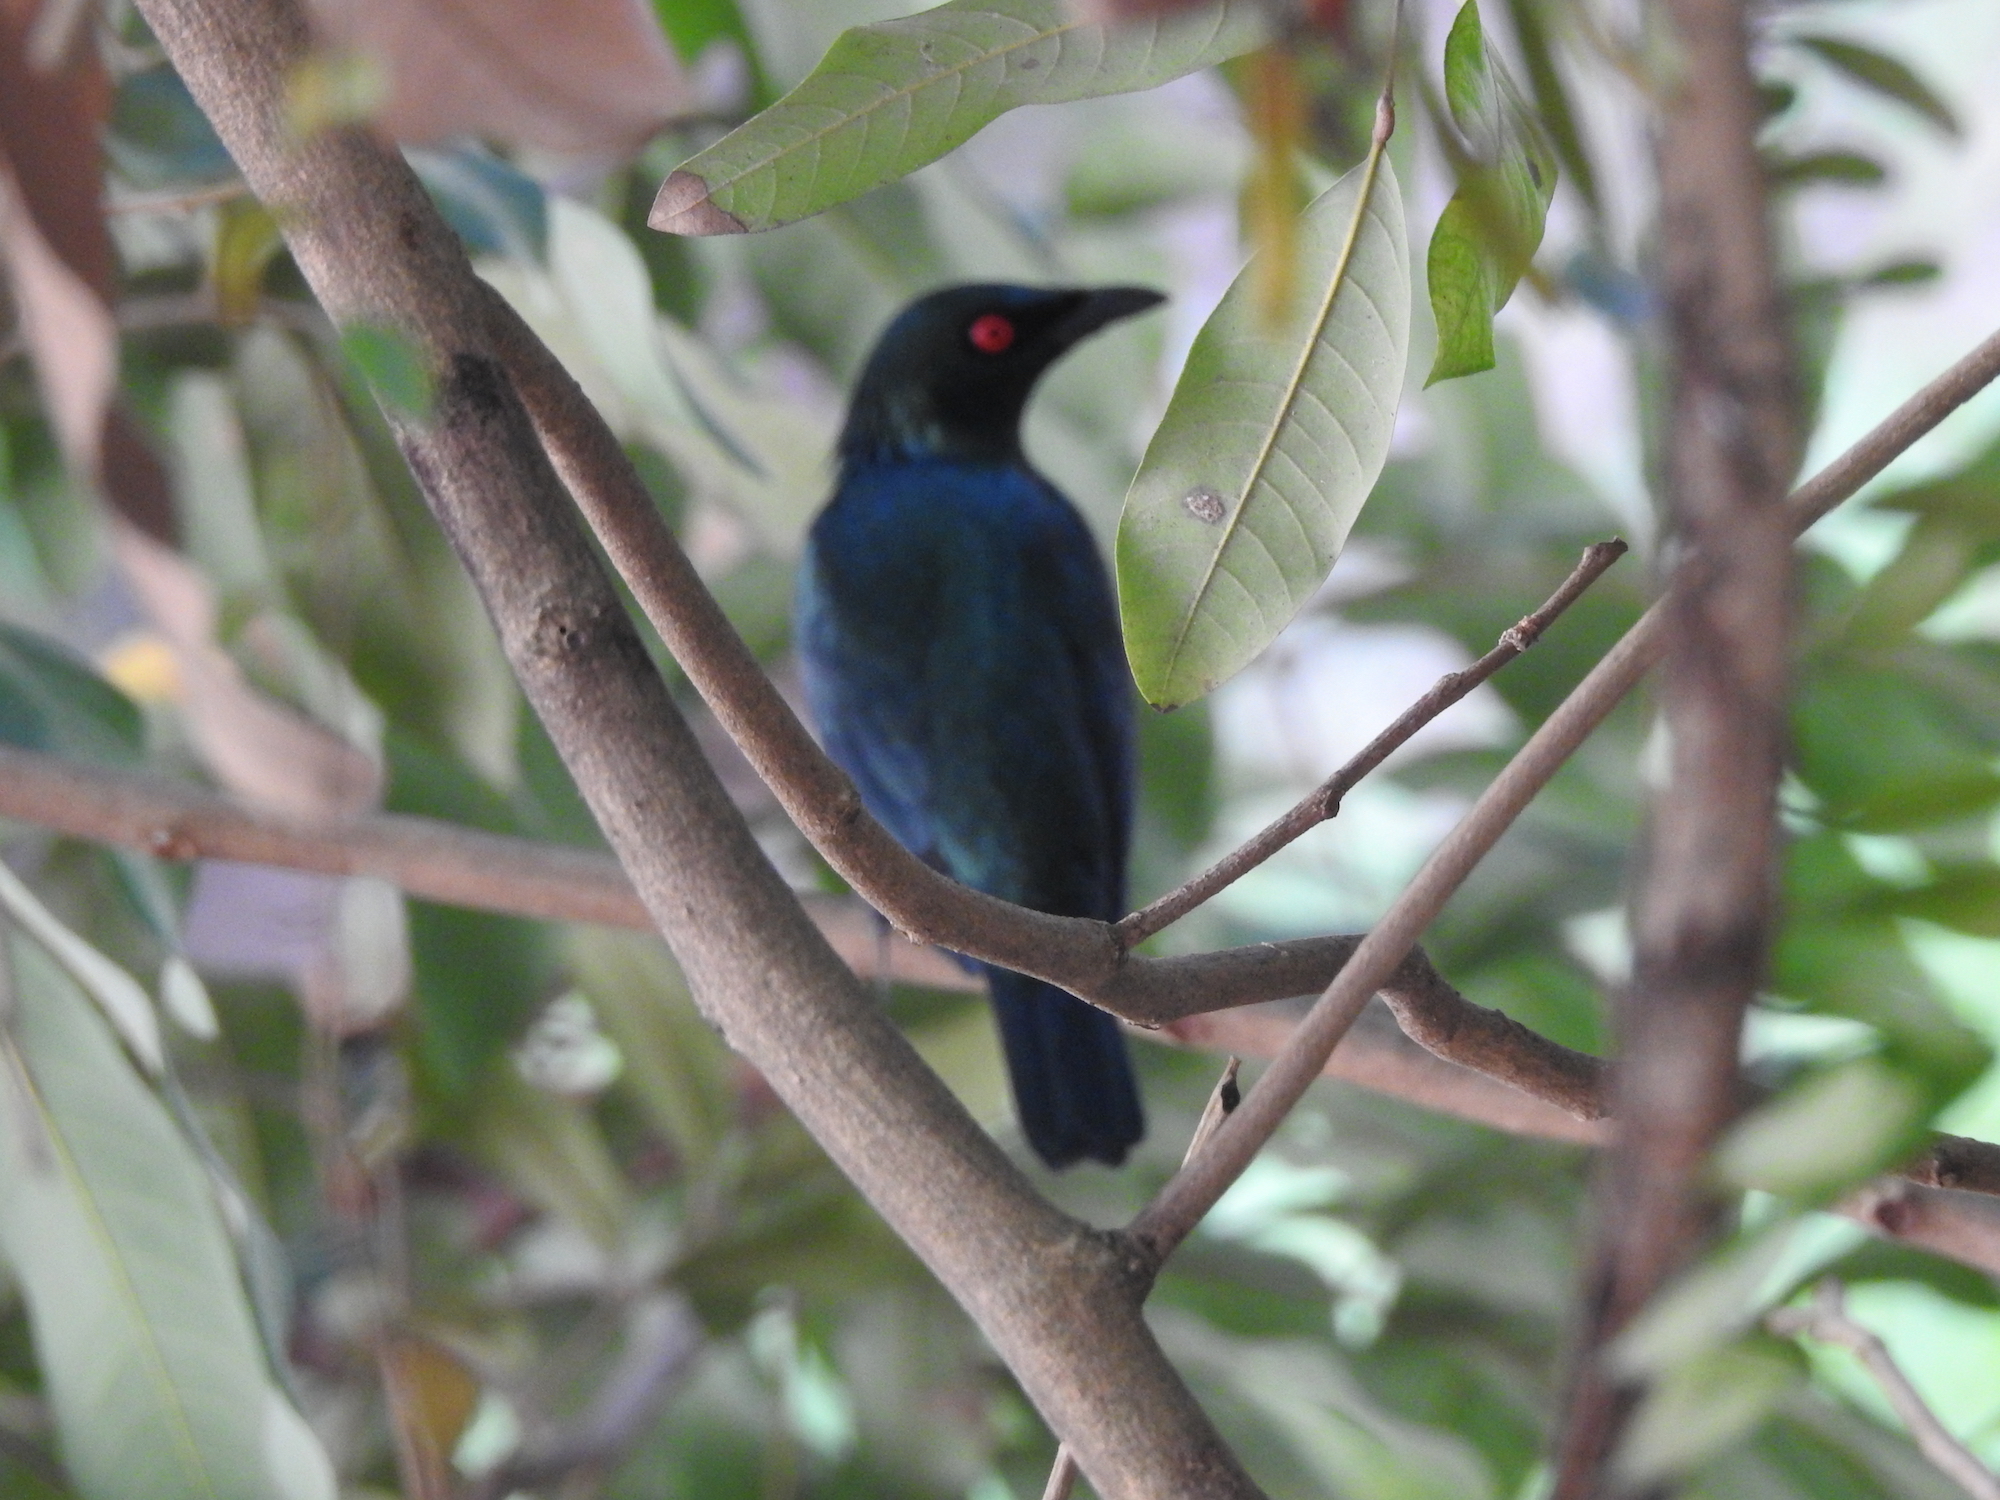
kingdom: Animalia
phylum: Chordata
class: Aves
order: Passeriformes
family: Sturnidae
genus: Aplonis
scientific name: Aplonis panayensis
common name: Asian glossy starling
